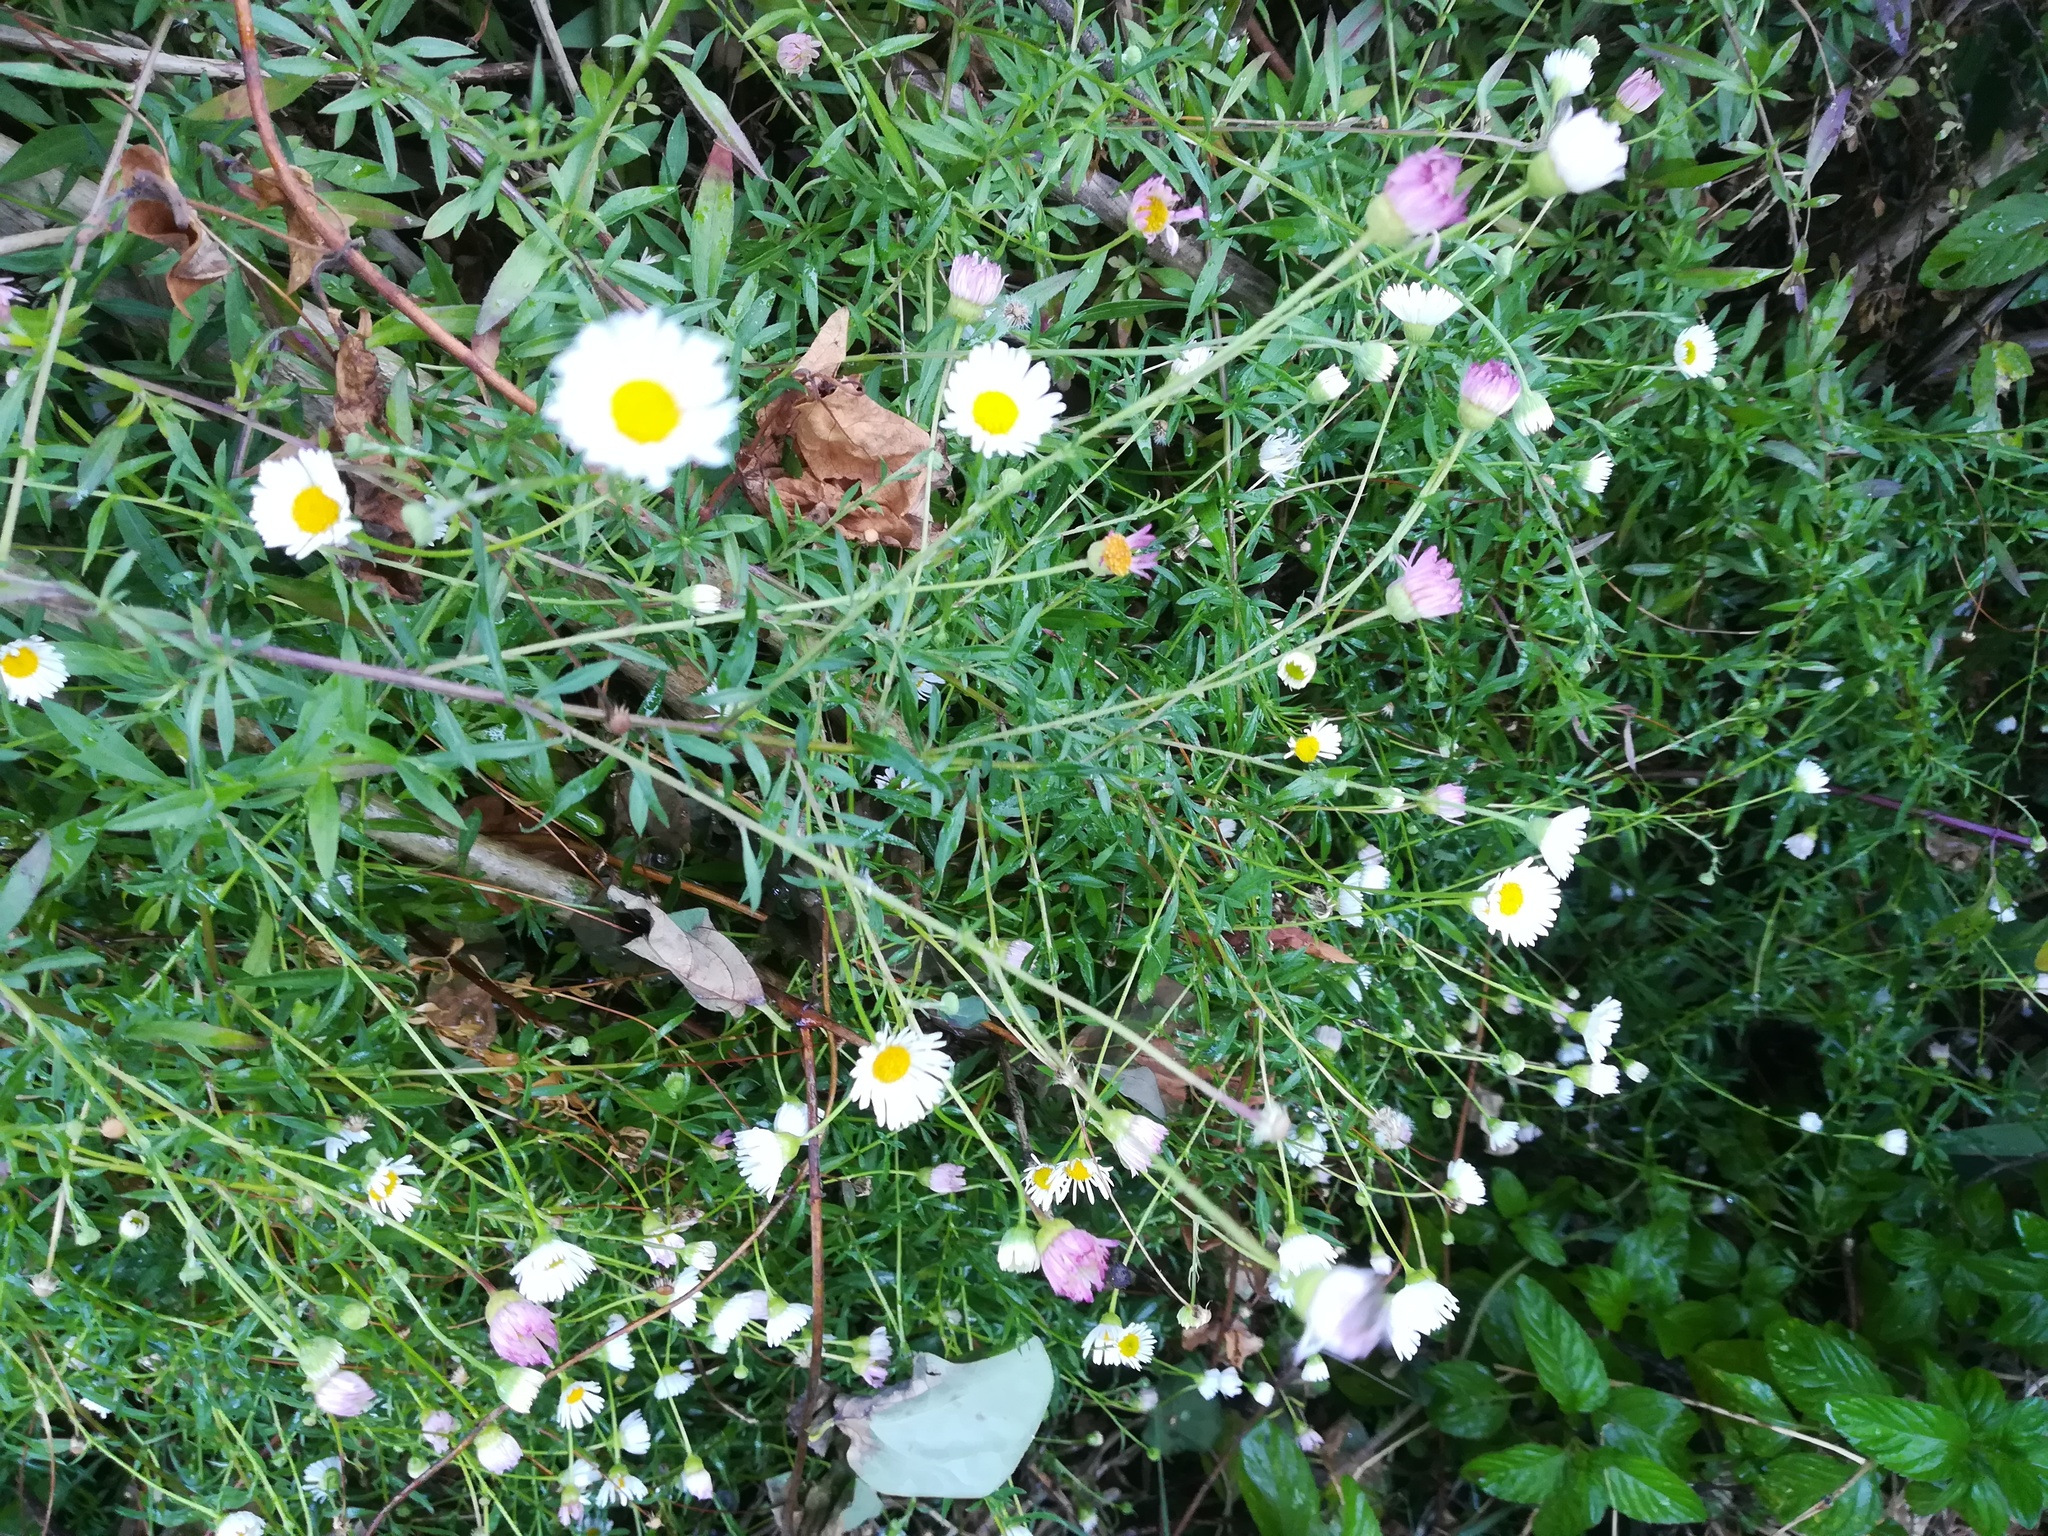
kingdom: Plantae
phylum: Tracheophyta
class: Magnoliopsida
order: Asterales
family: Asteraceae
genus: Erigeron
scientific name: Erigeron karvinskianus
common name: Mexican fleabane
